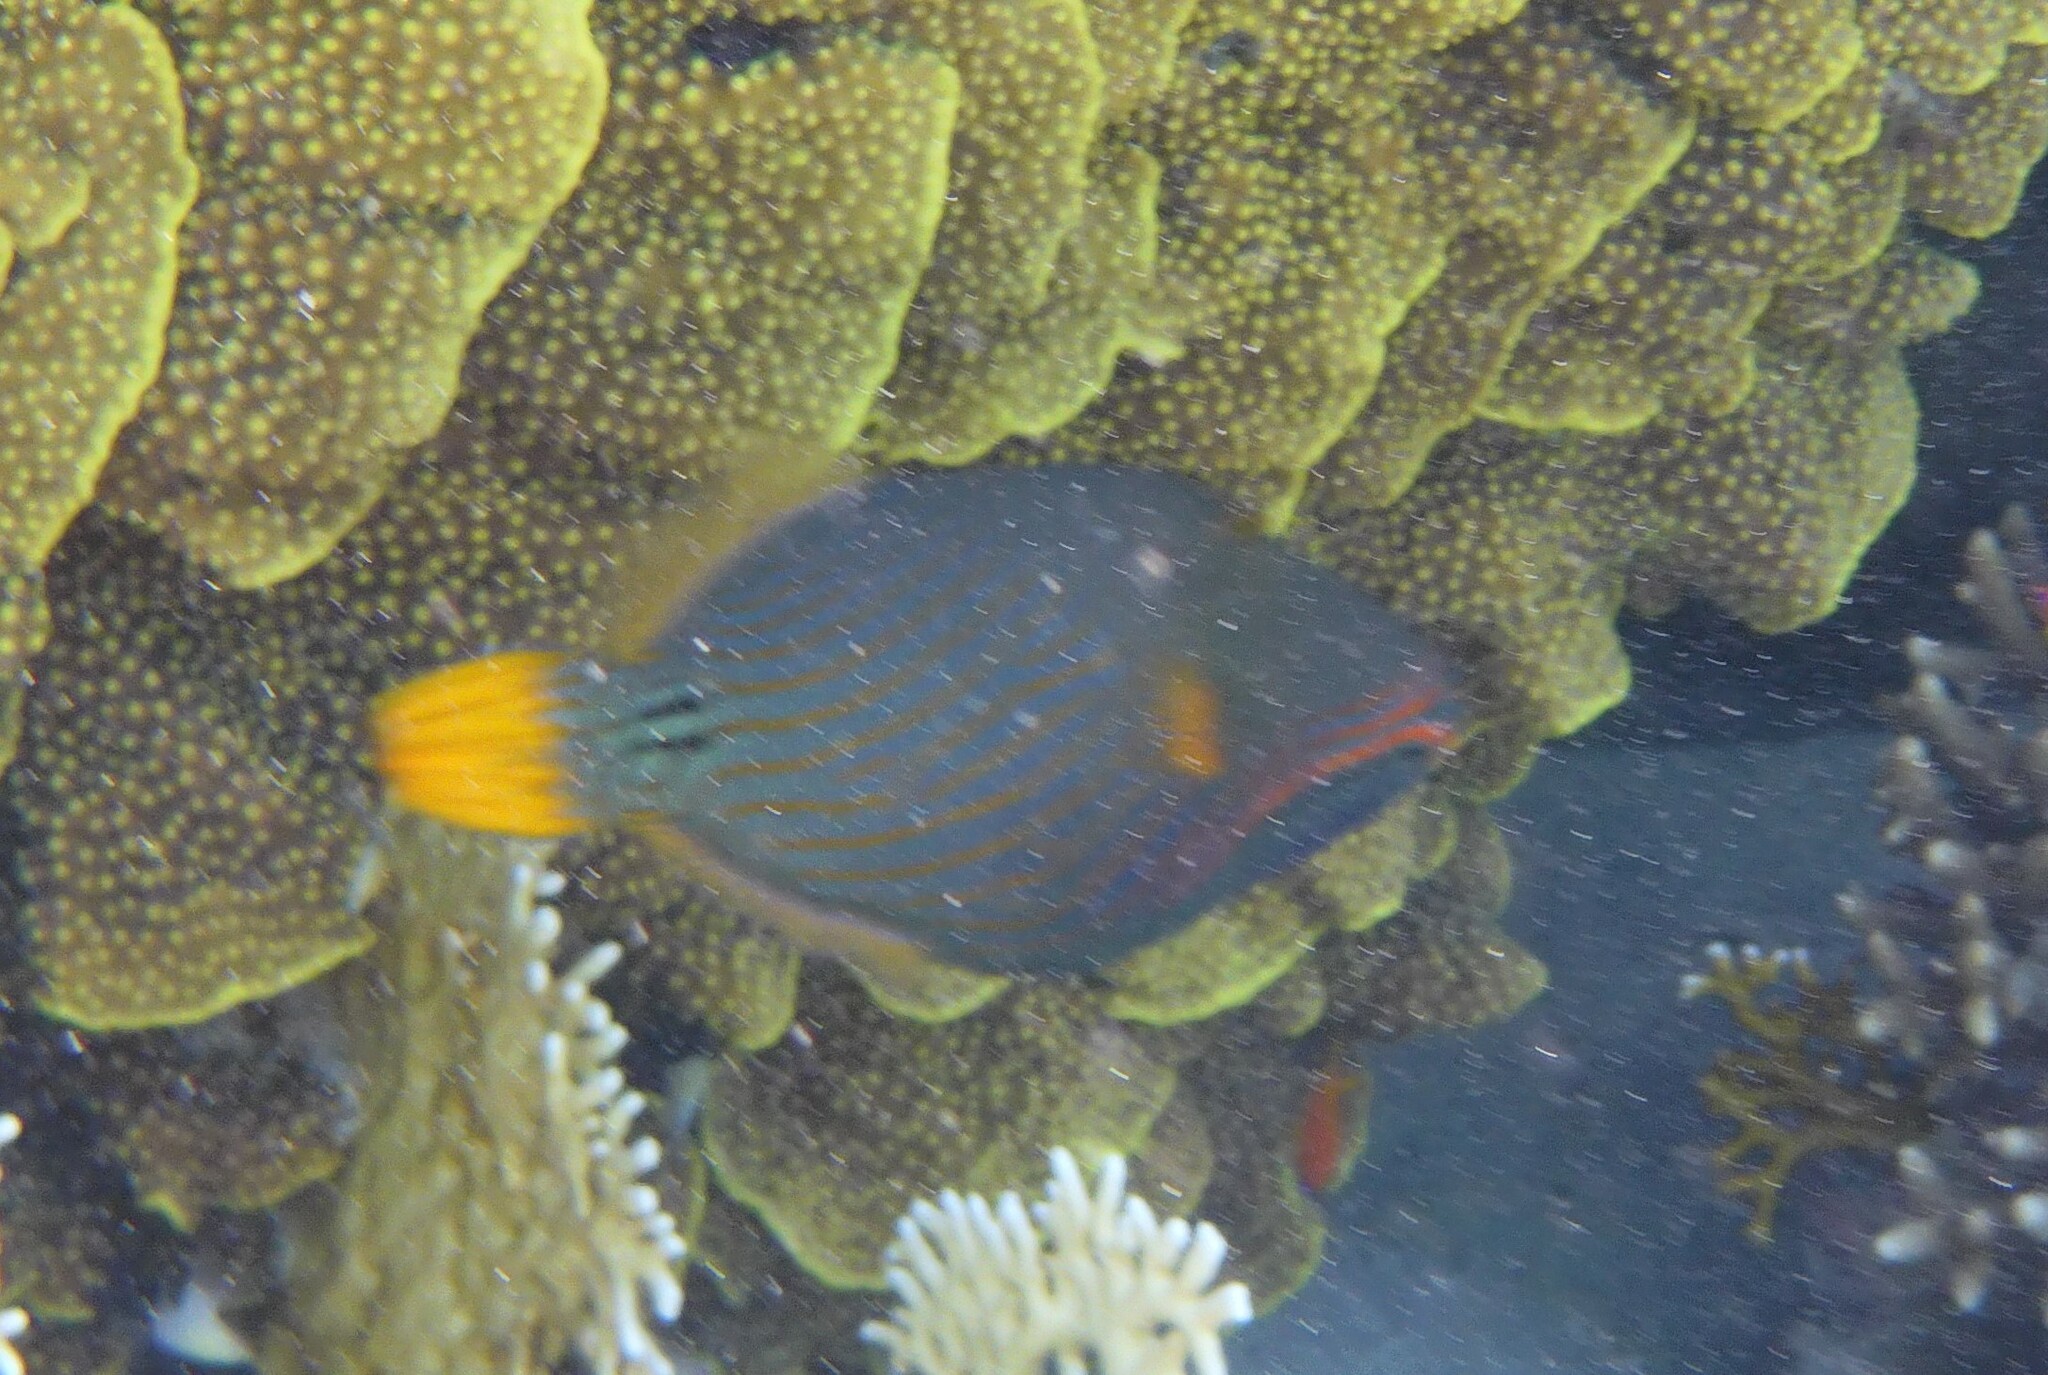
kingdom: Animalia
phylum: Chordata
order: Tetraodontiformes
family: Balistidae
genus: Balistapus
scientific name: Balistapus undulatus
